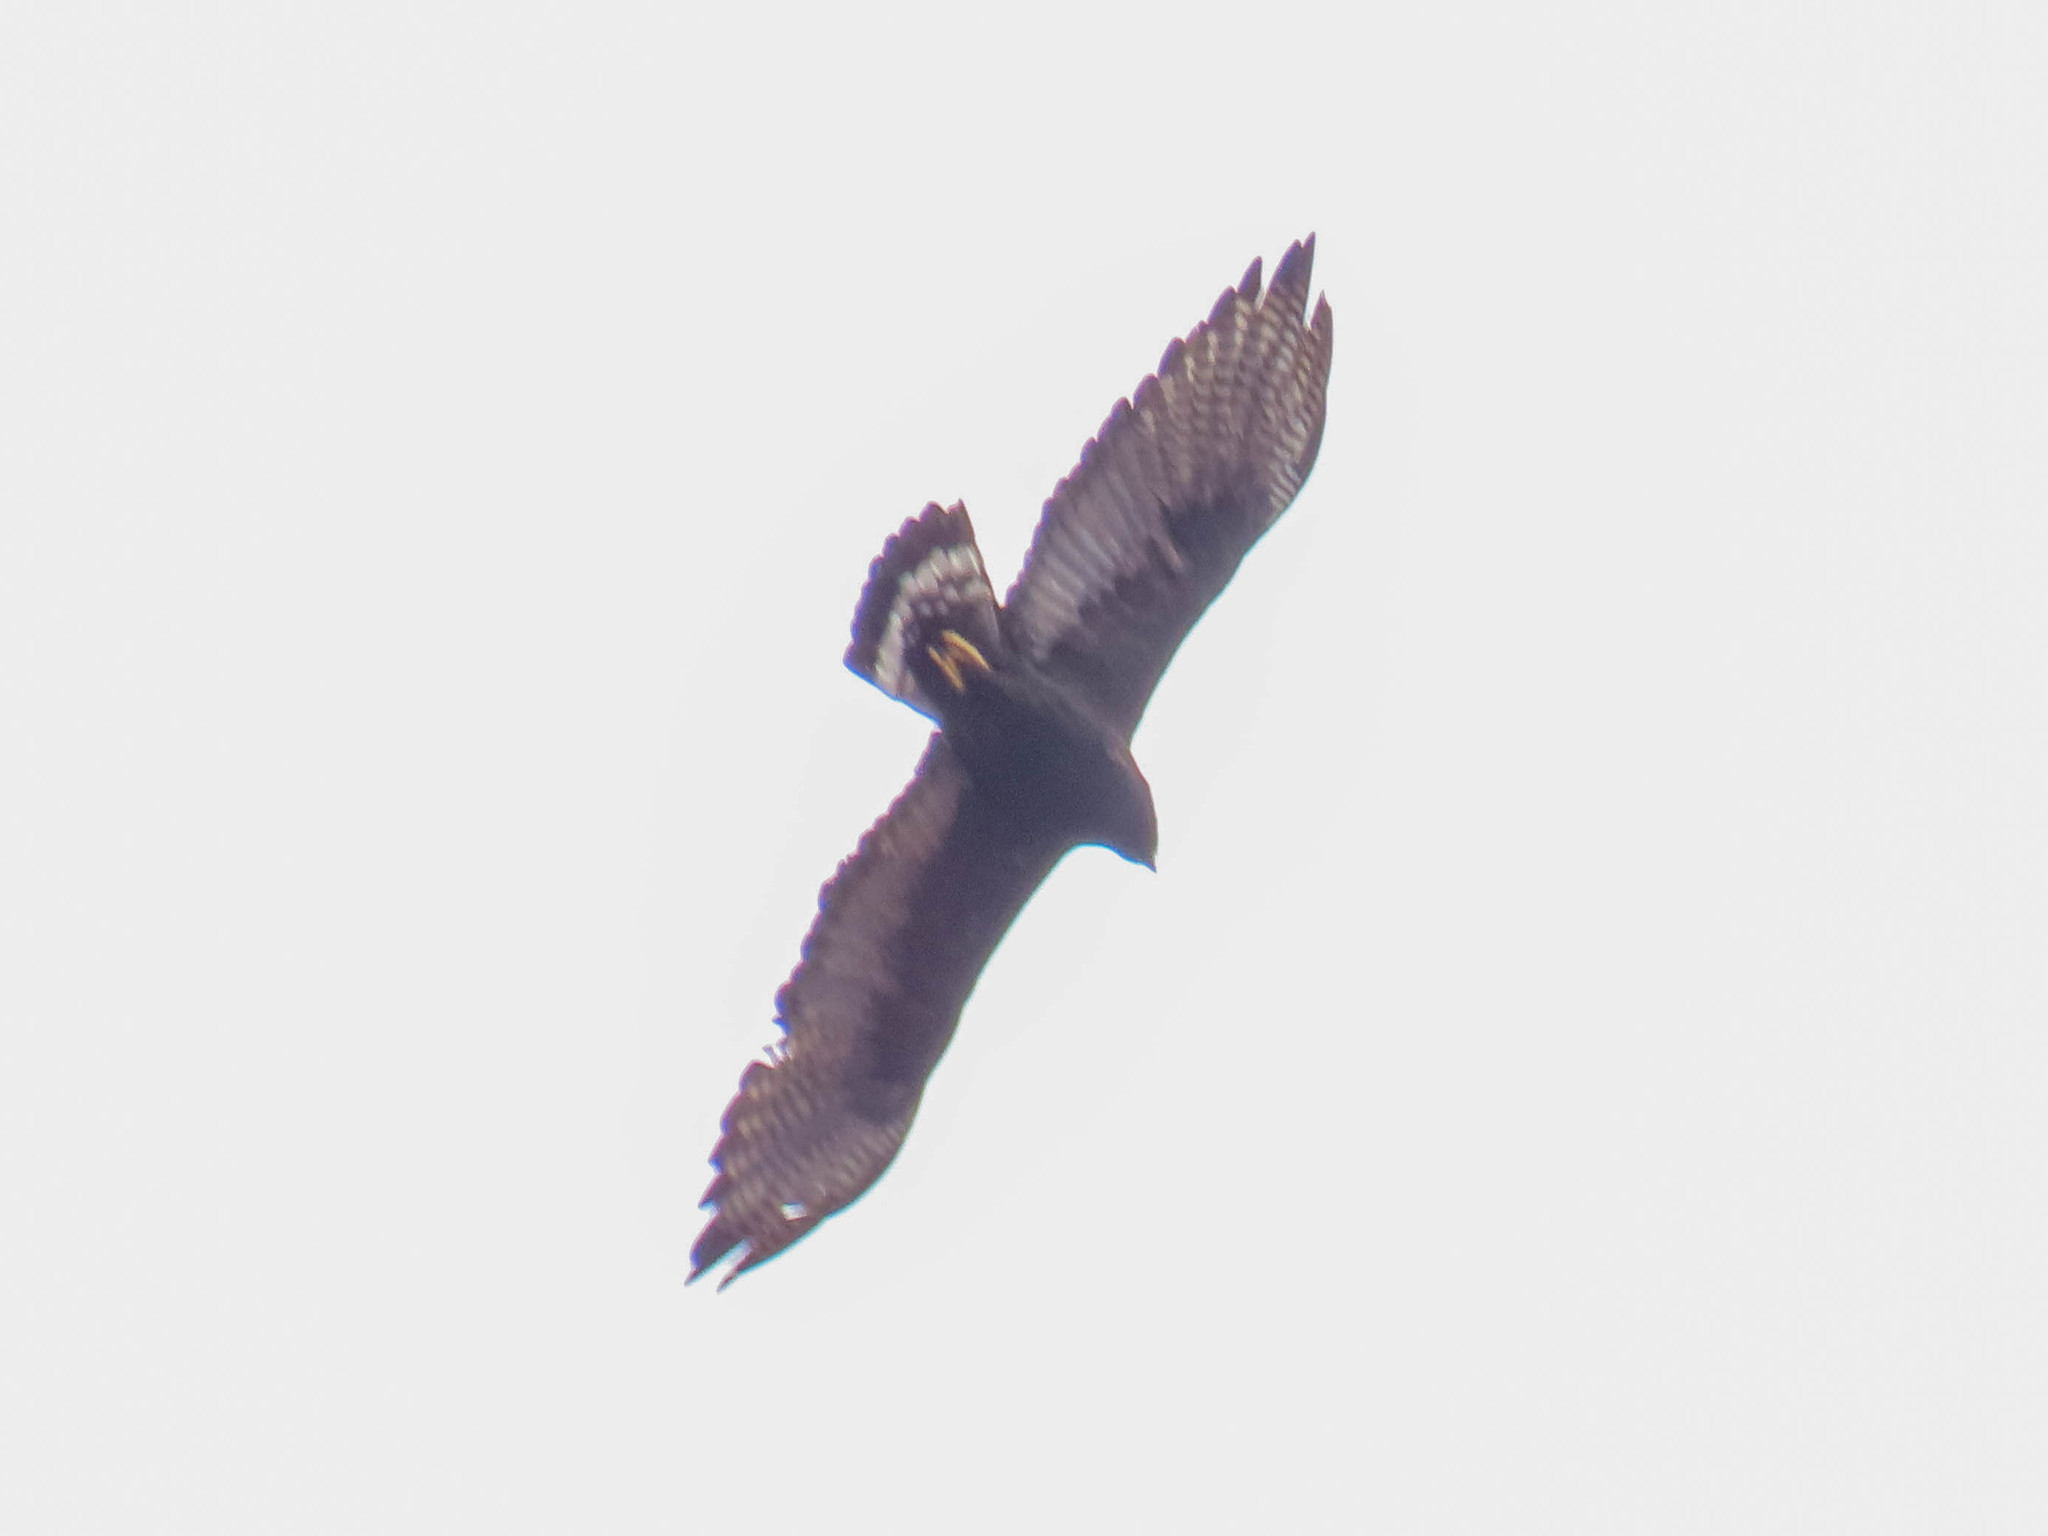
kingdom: Animalia
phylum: Chordata
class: Aves
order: Accipitriformes
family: Accipitridae
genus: Buteo
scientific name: Buteo albonotatus
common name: Zone-tailed hawk
